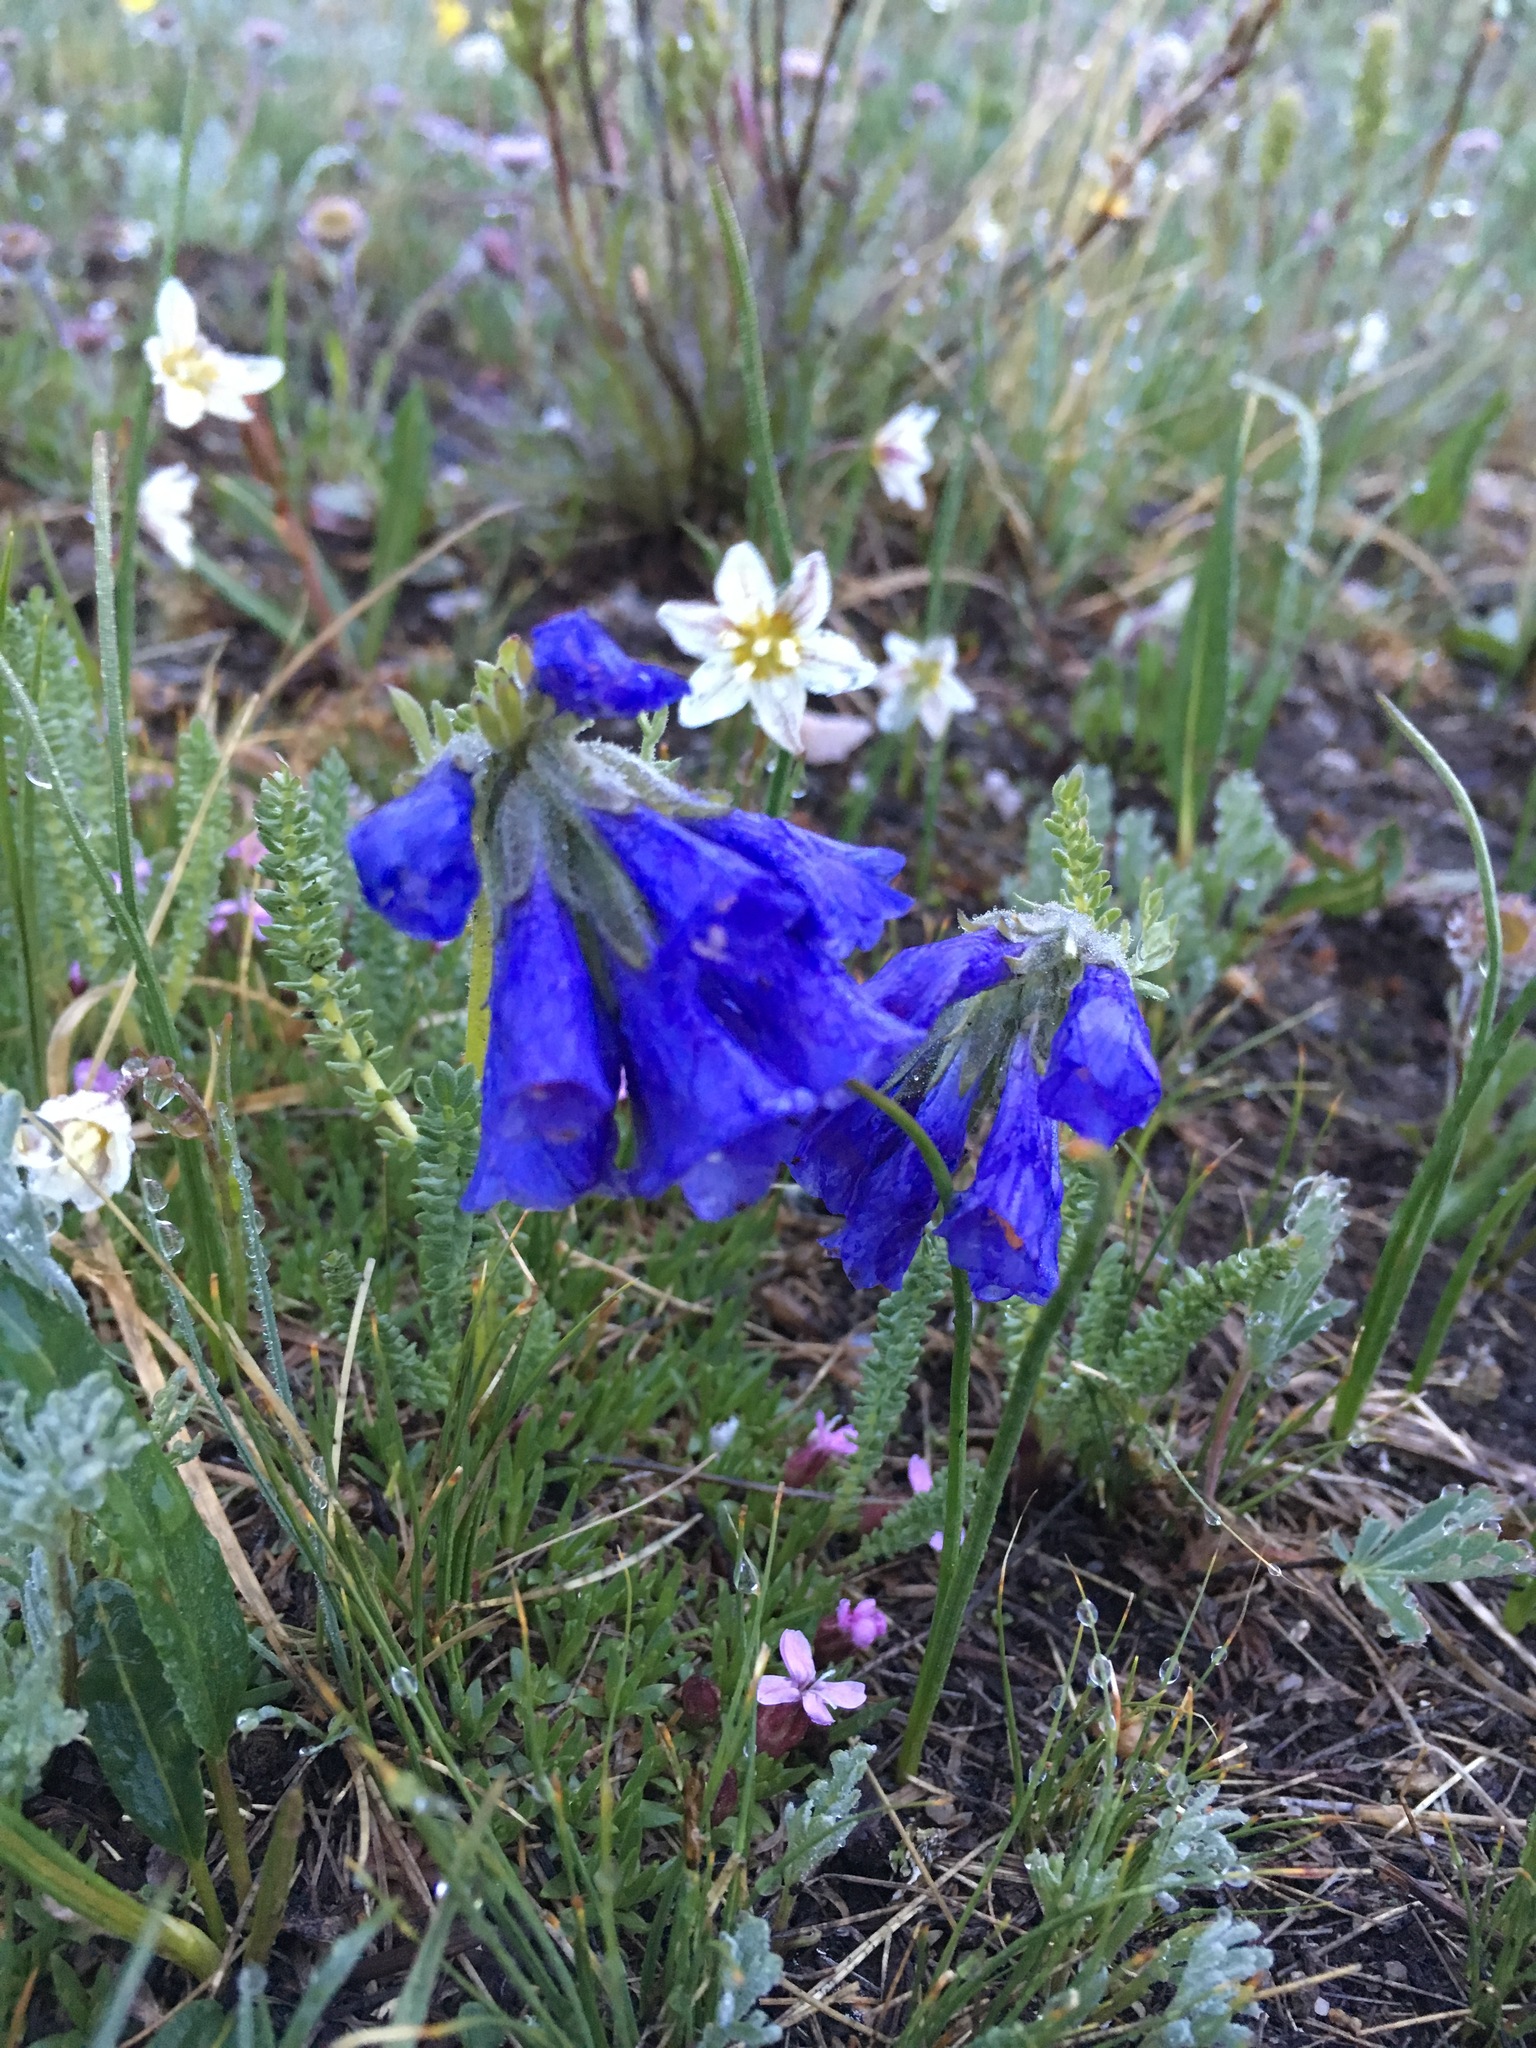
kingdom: Plantae
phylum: Tracheophyta
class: Magnoliopsida
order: Ericales
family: Polemoniaceae
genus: Polemonium
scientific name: Polemonium viscosum
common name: Skunk jacob's-ladder
